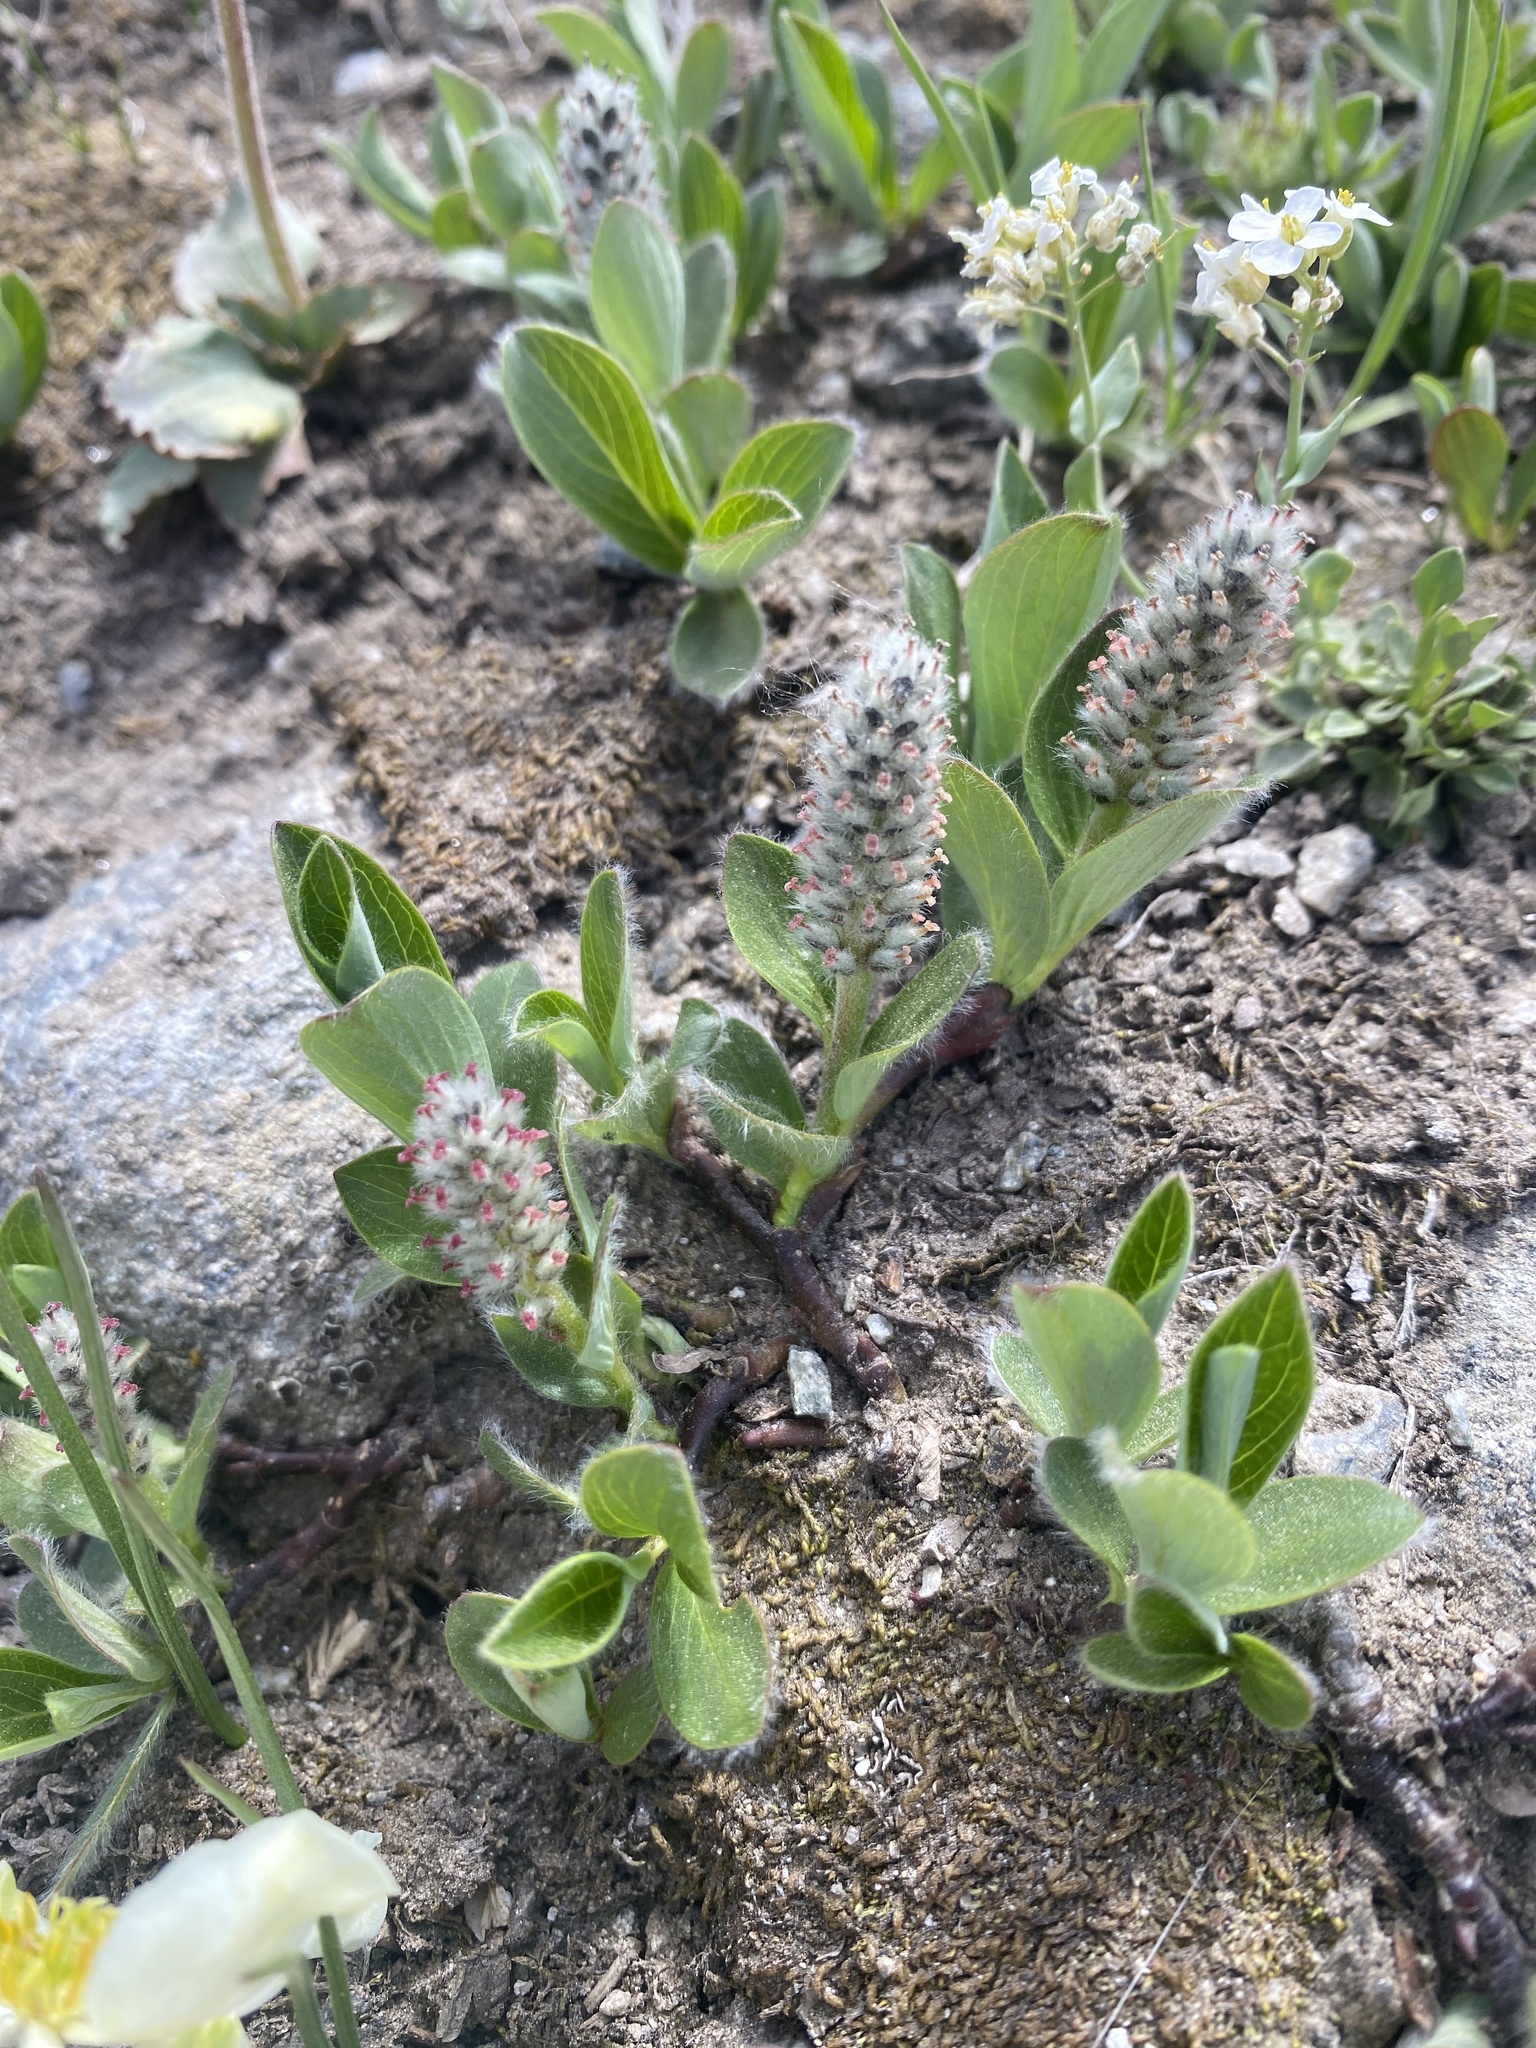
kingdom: Plantae
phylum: Tracheophyta
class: Magnoliopsida
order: Malpighiales
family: Salicaceae
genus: Salix
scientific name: Salix petrophila
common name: Rocky mountain willow
